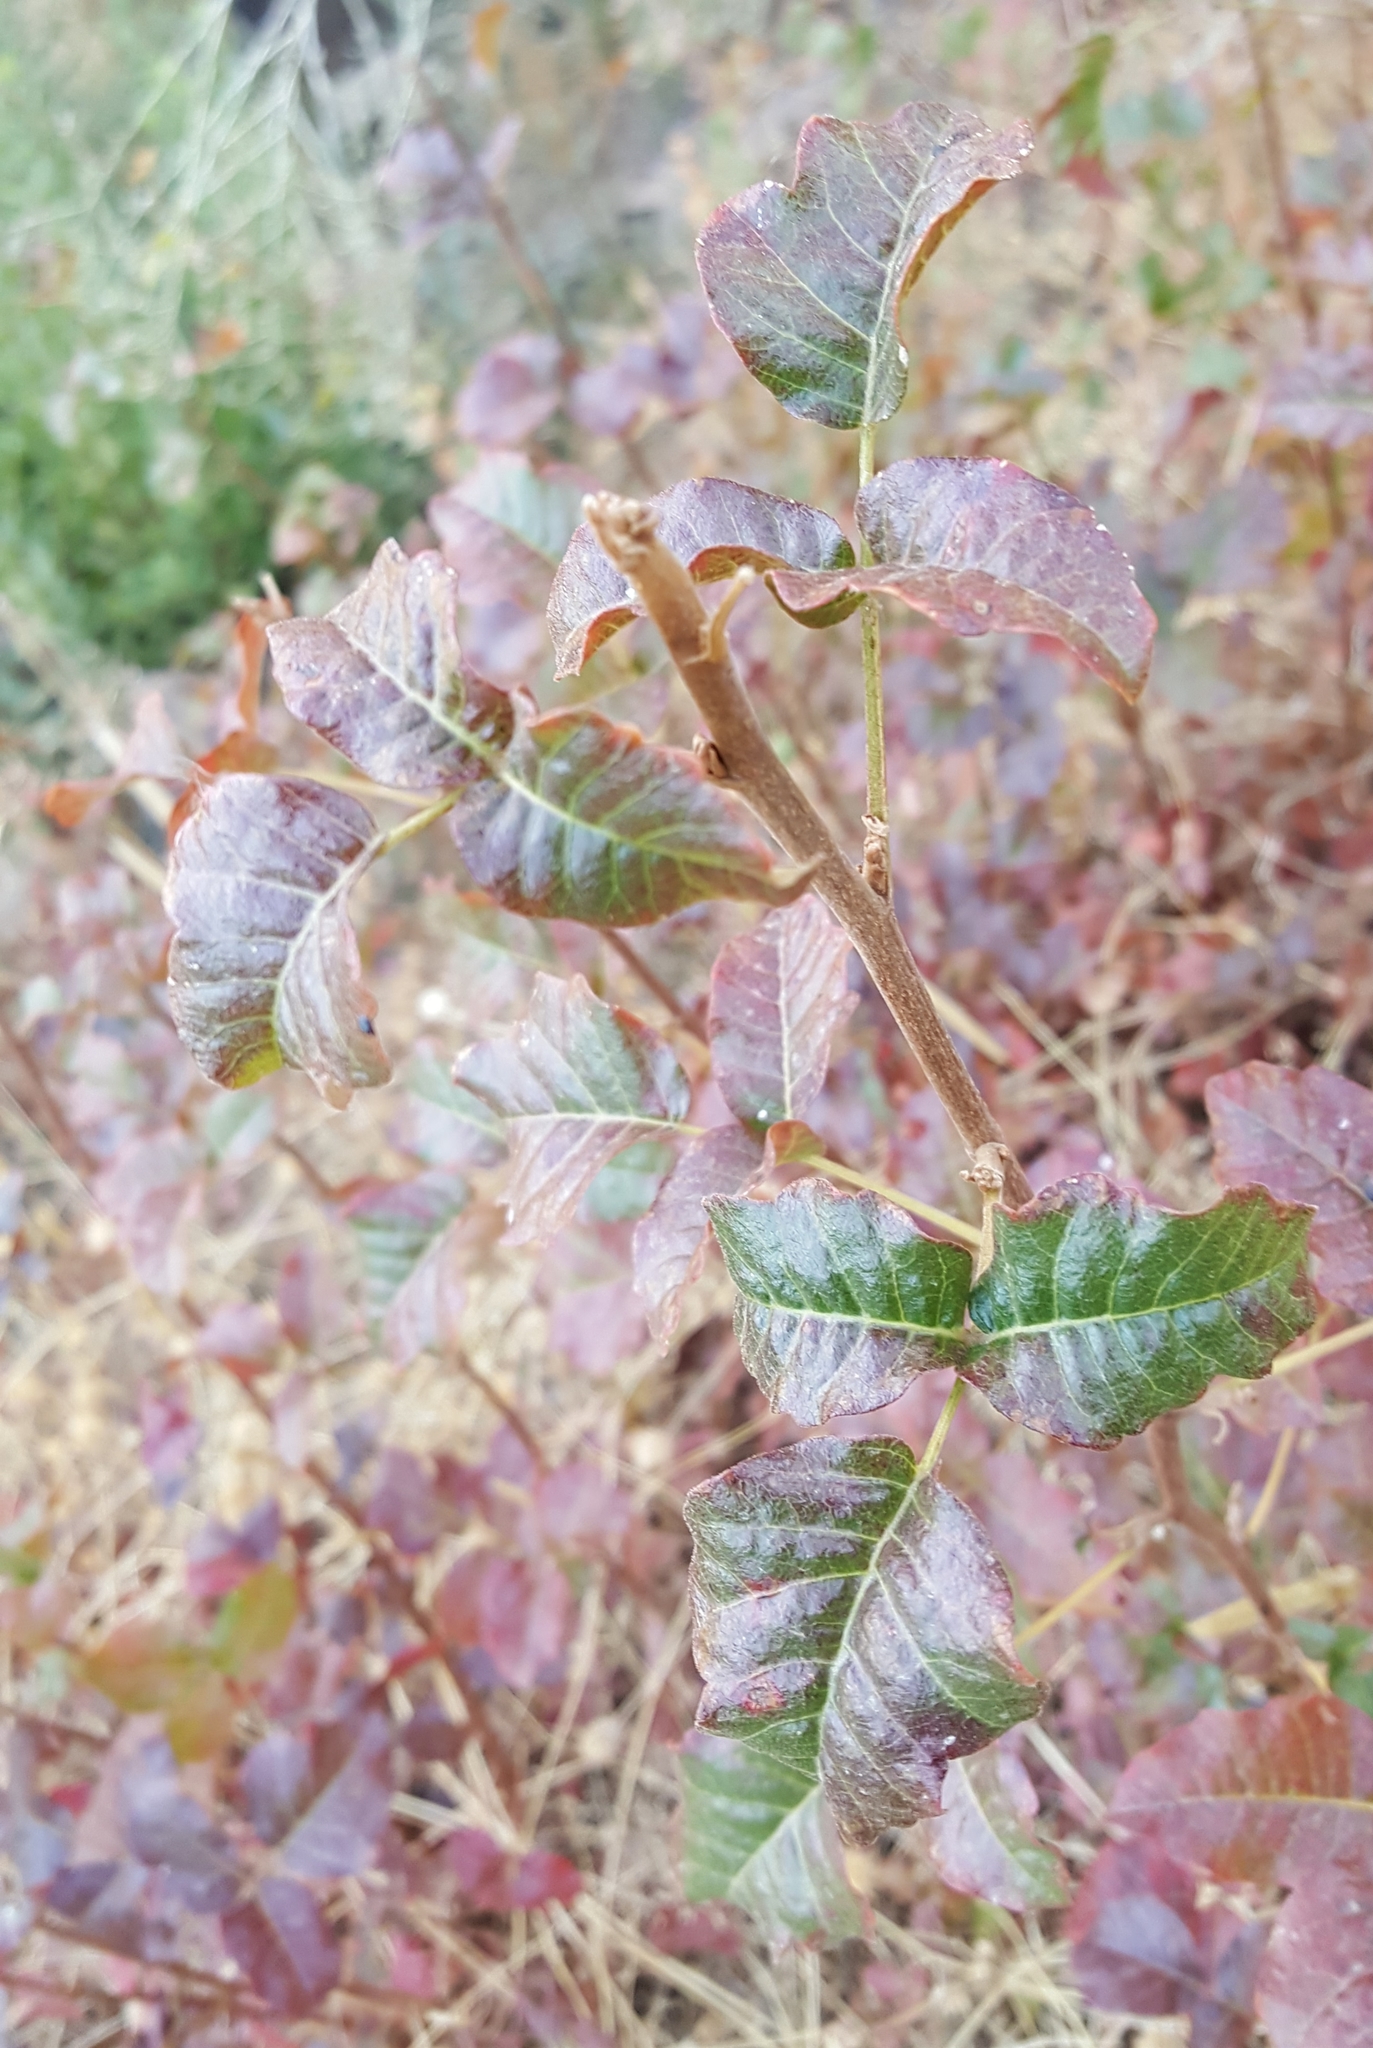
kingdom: Plantae
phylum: Tracheophyta
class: Magnoliopsida
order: Sapindales
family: Anacardiaceae
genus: Toxicodendron
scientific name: Toxicodendron diversilobum
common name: Pacific poison-oak
